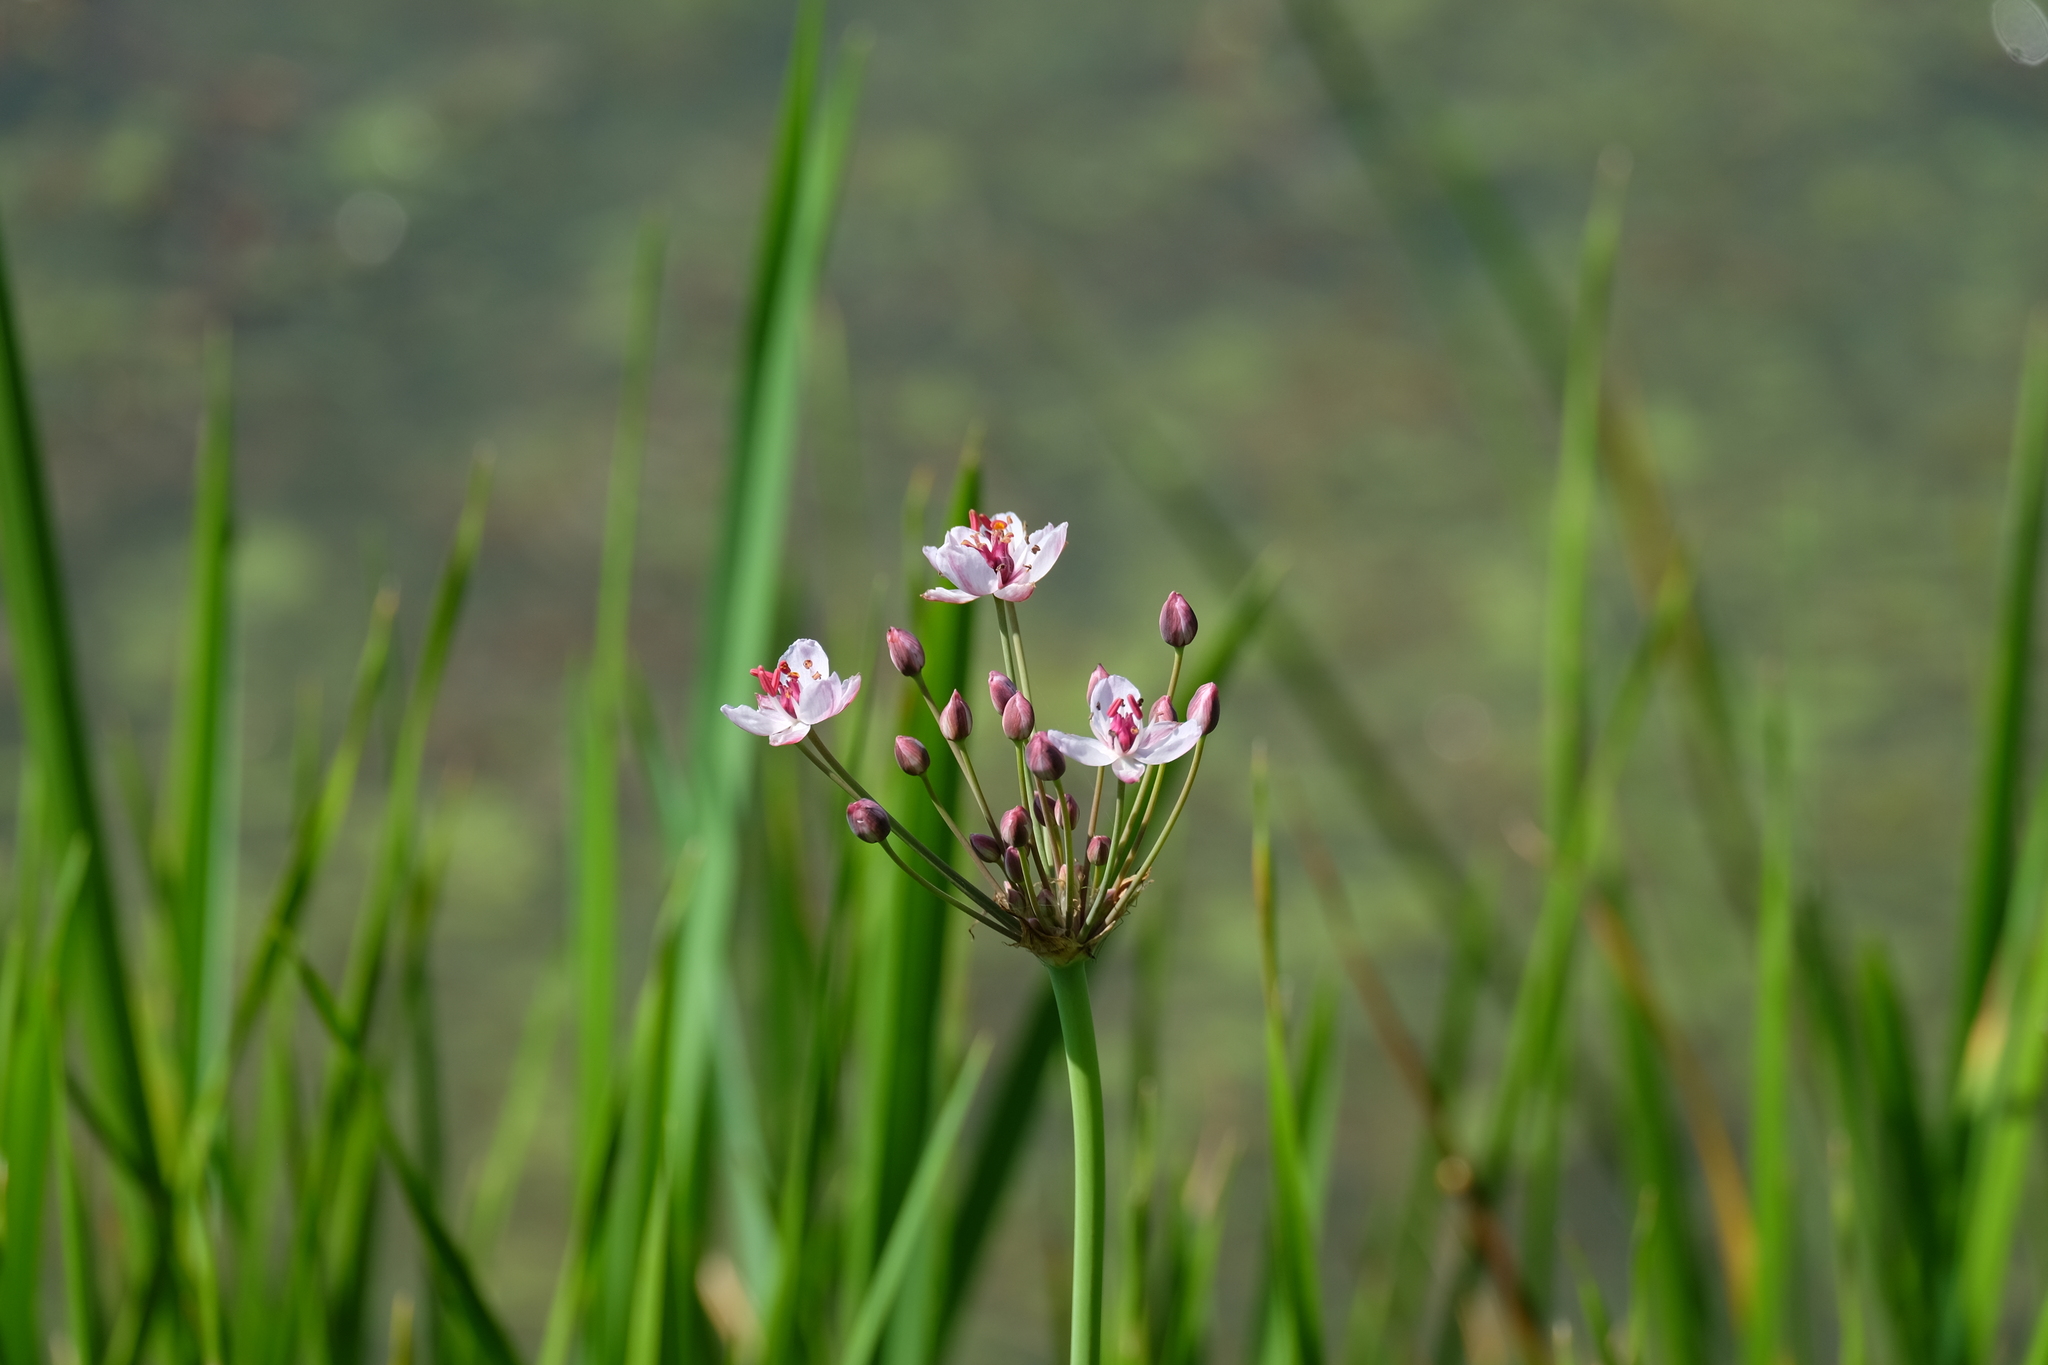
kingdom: Plantae
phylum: Tracheophyta
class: Liliopsida
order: Alismatales
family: Butomaceae
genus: Butomus
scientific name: Butomus umbellatus
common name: Flowering-rush
